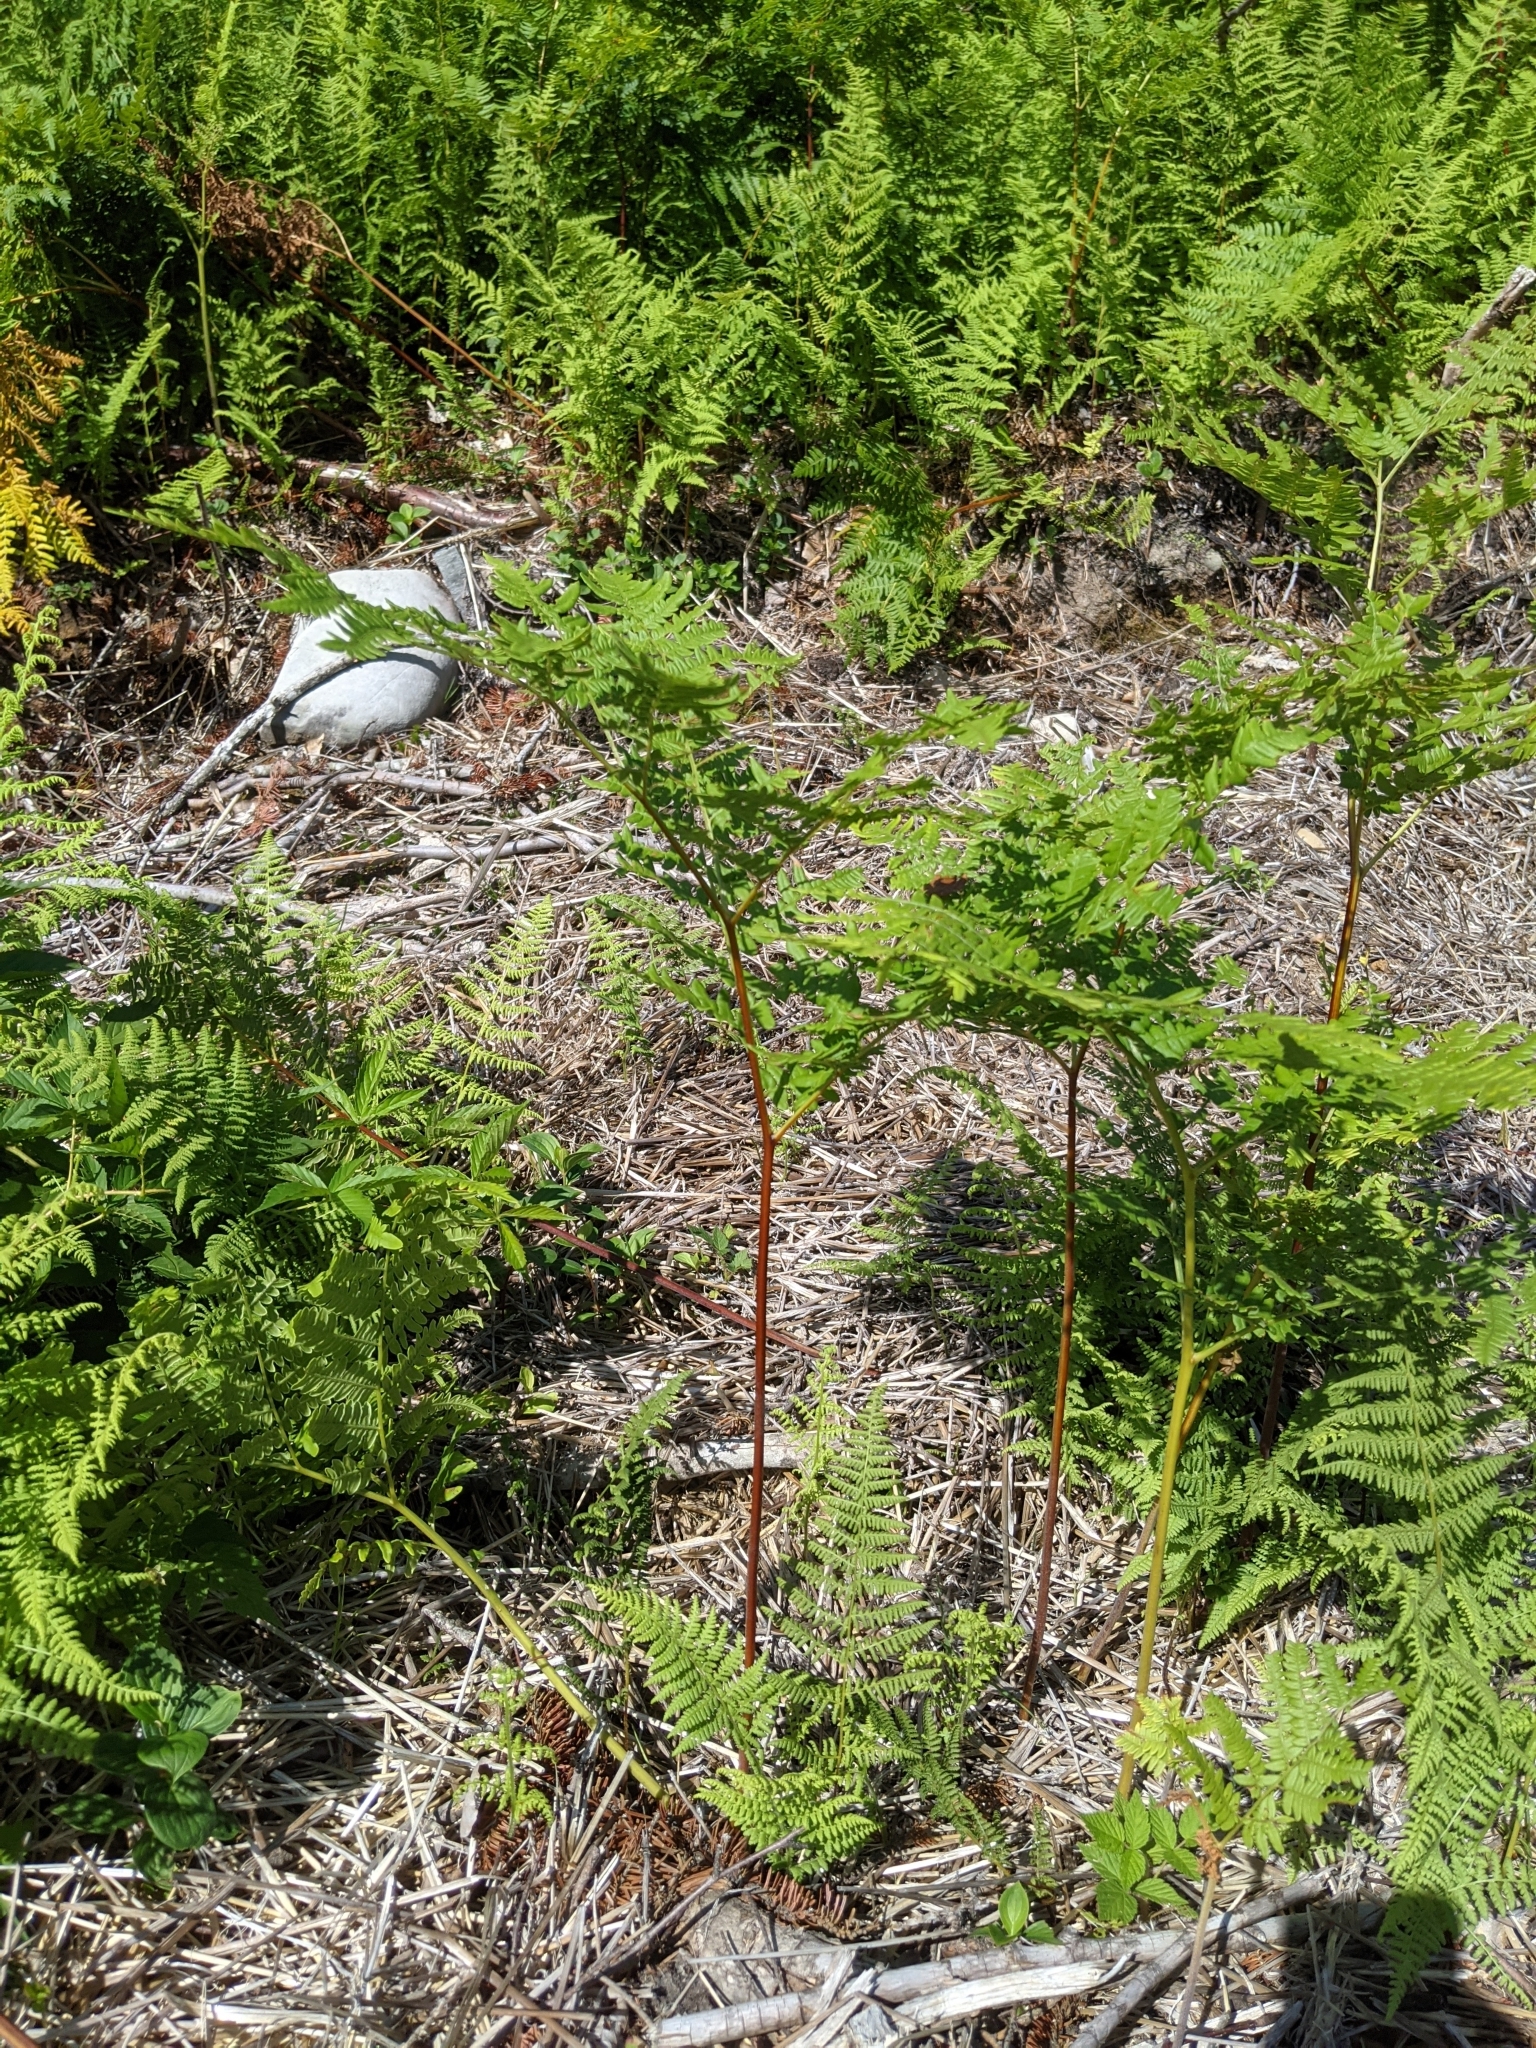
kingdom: Plantae
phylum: Tracheophyta
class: Polypodiopsida
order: Polypodiales
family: Dennstaedtiaceae
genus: Pteridium
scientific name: Pteridium aquilinum
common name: Bracken
